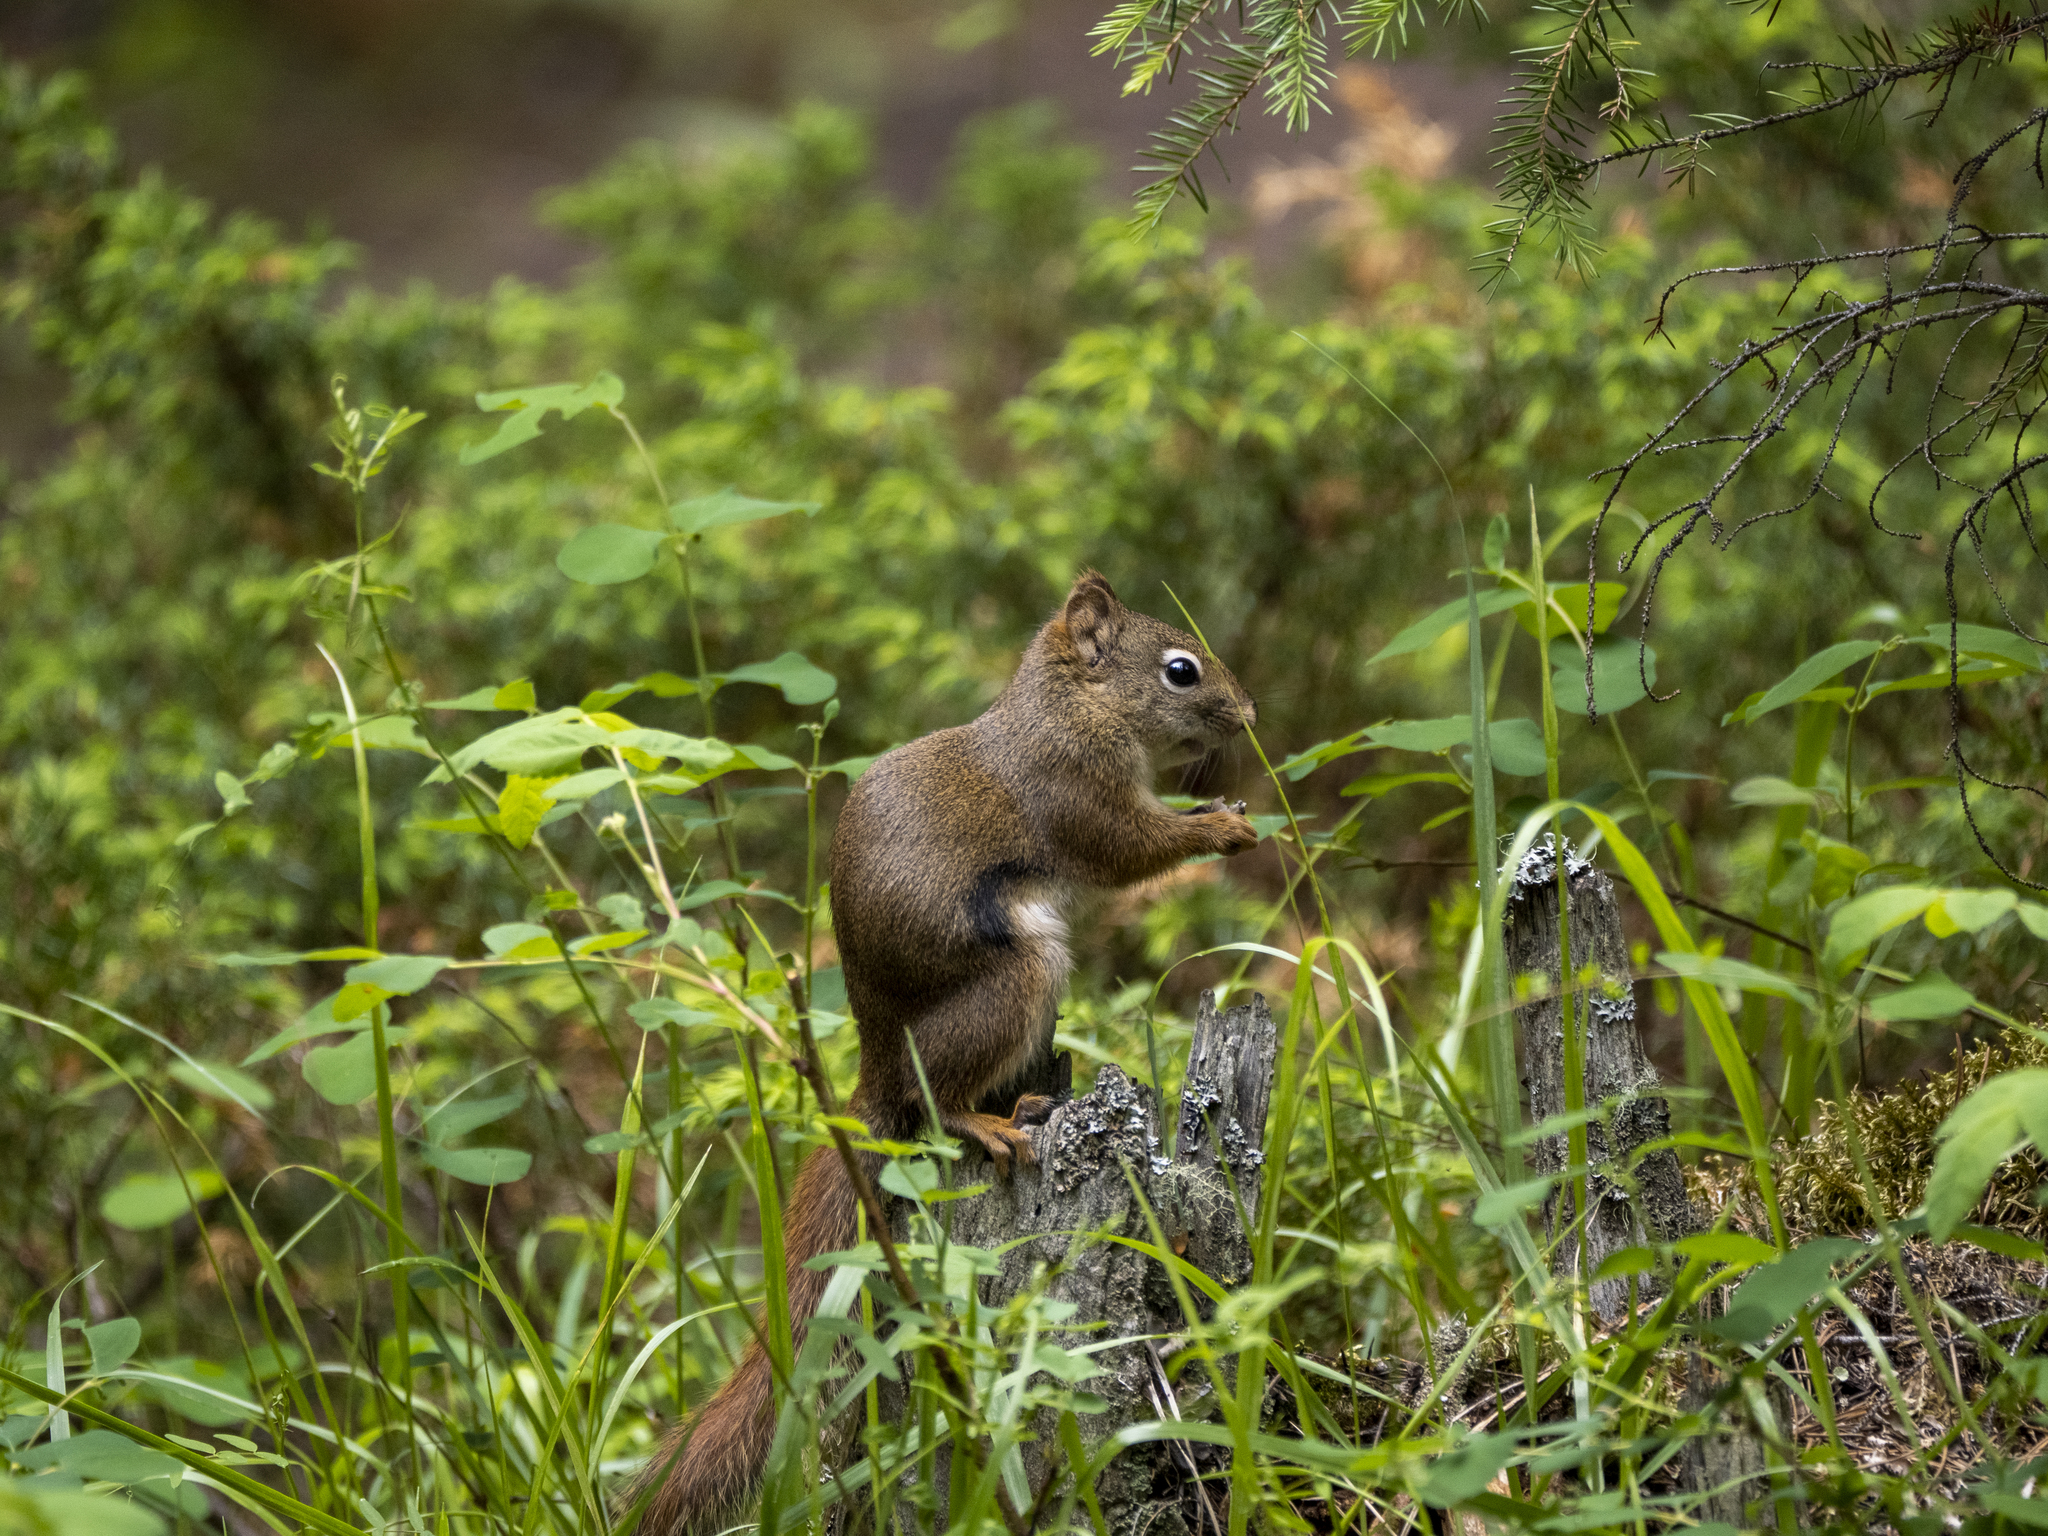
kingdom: Animalia
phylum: Chordata
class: Mammalia
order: Rodentia
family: Sciuridae
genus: Tamiasciurus
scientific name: Tamiasciurus hudsonicus
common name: Red squirrel
